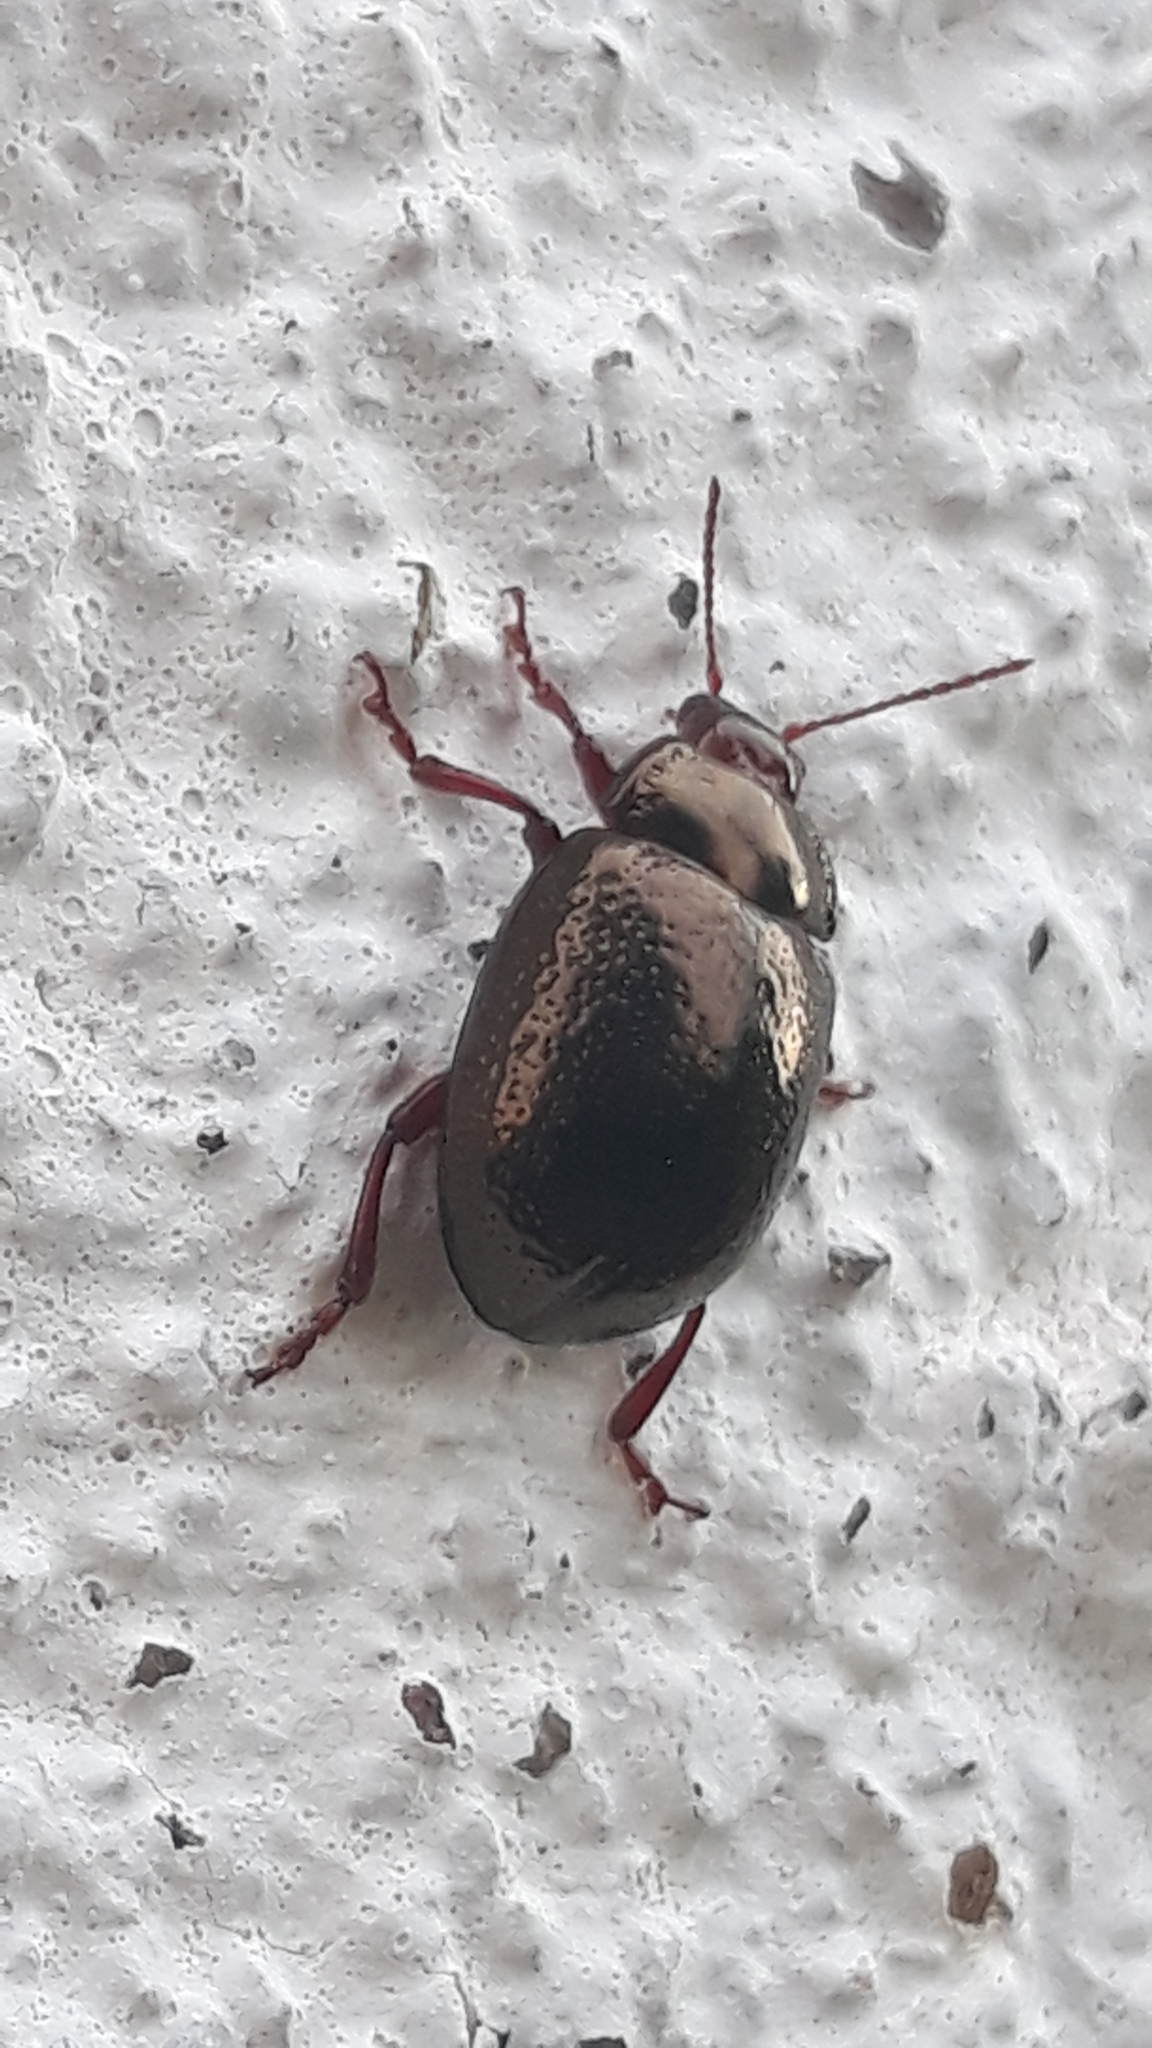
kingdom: Animalia
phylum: Arthropoda
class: Insecta
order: Coleoptera
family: Chrysomelidae
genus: Chrysolina
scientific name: Chrysolina bankii
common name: Leaf beetle
